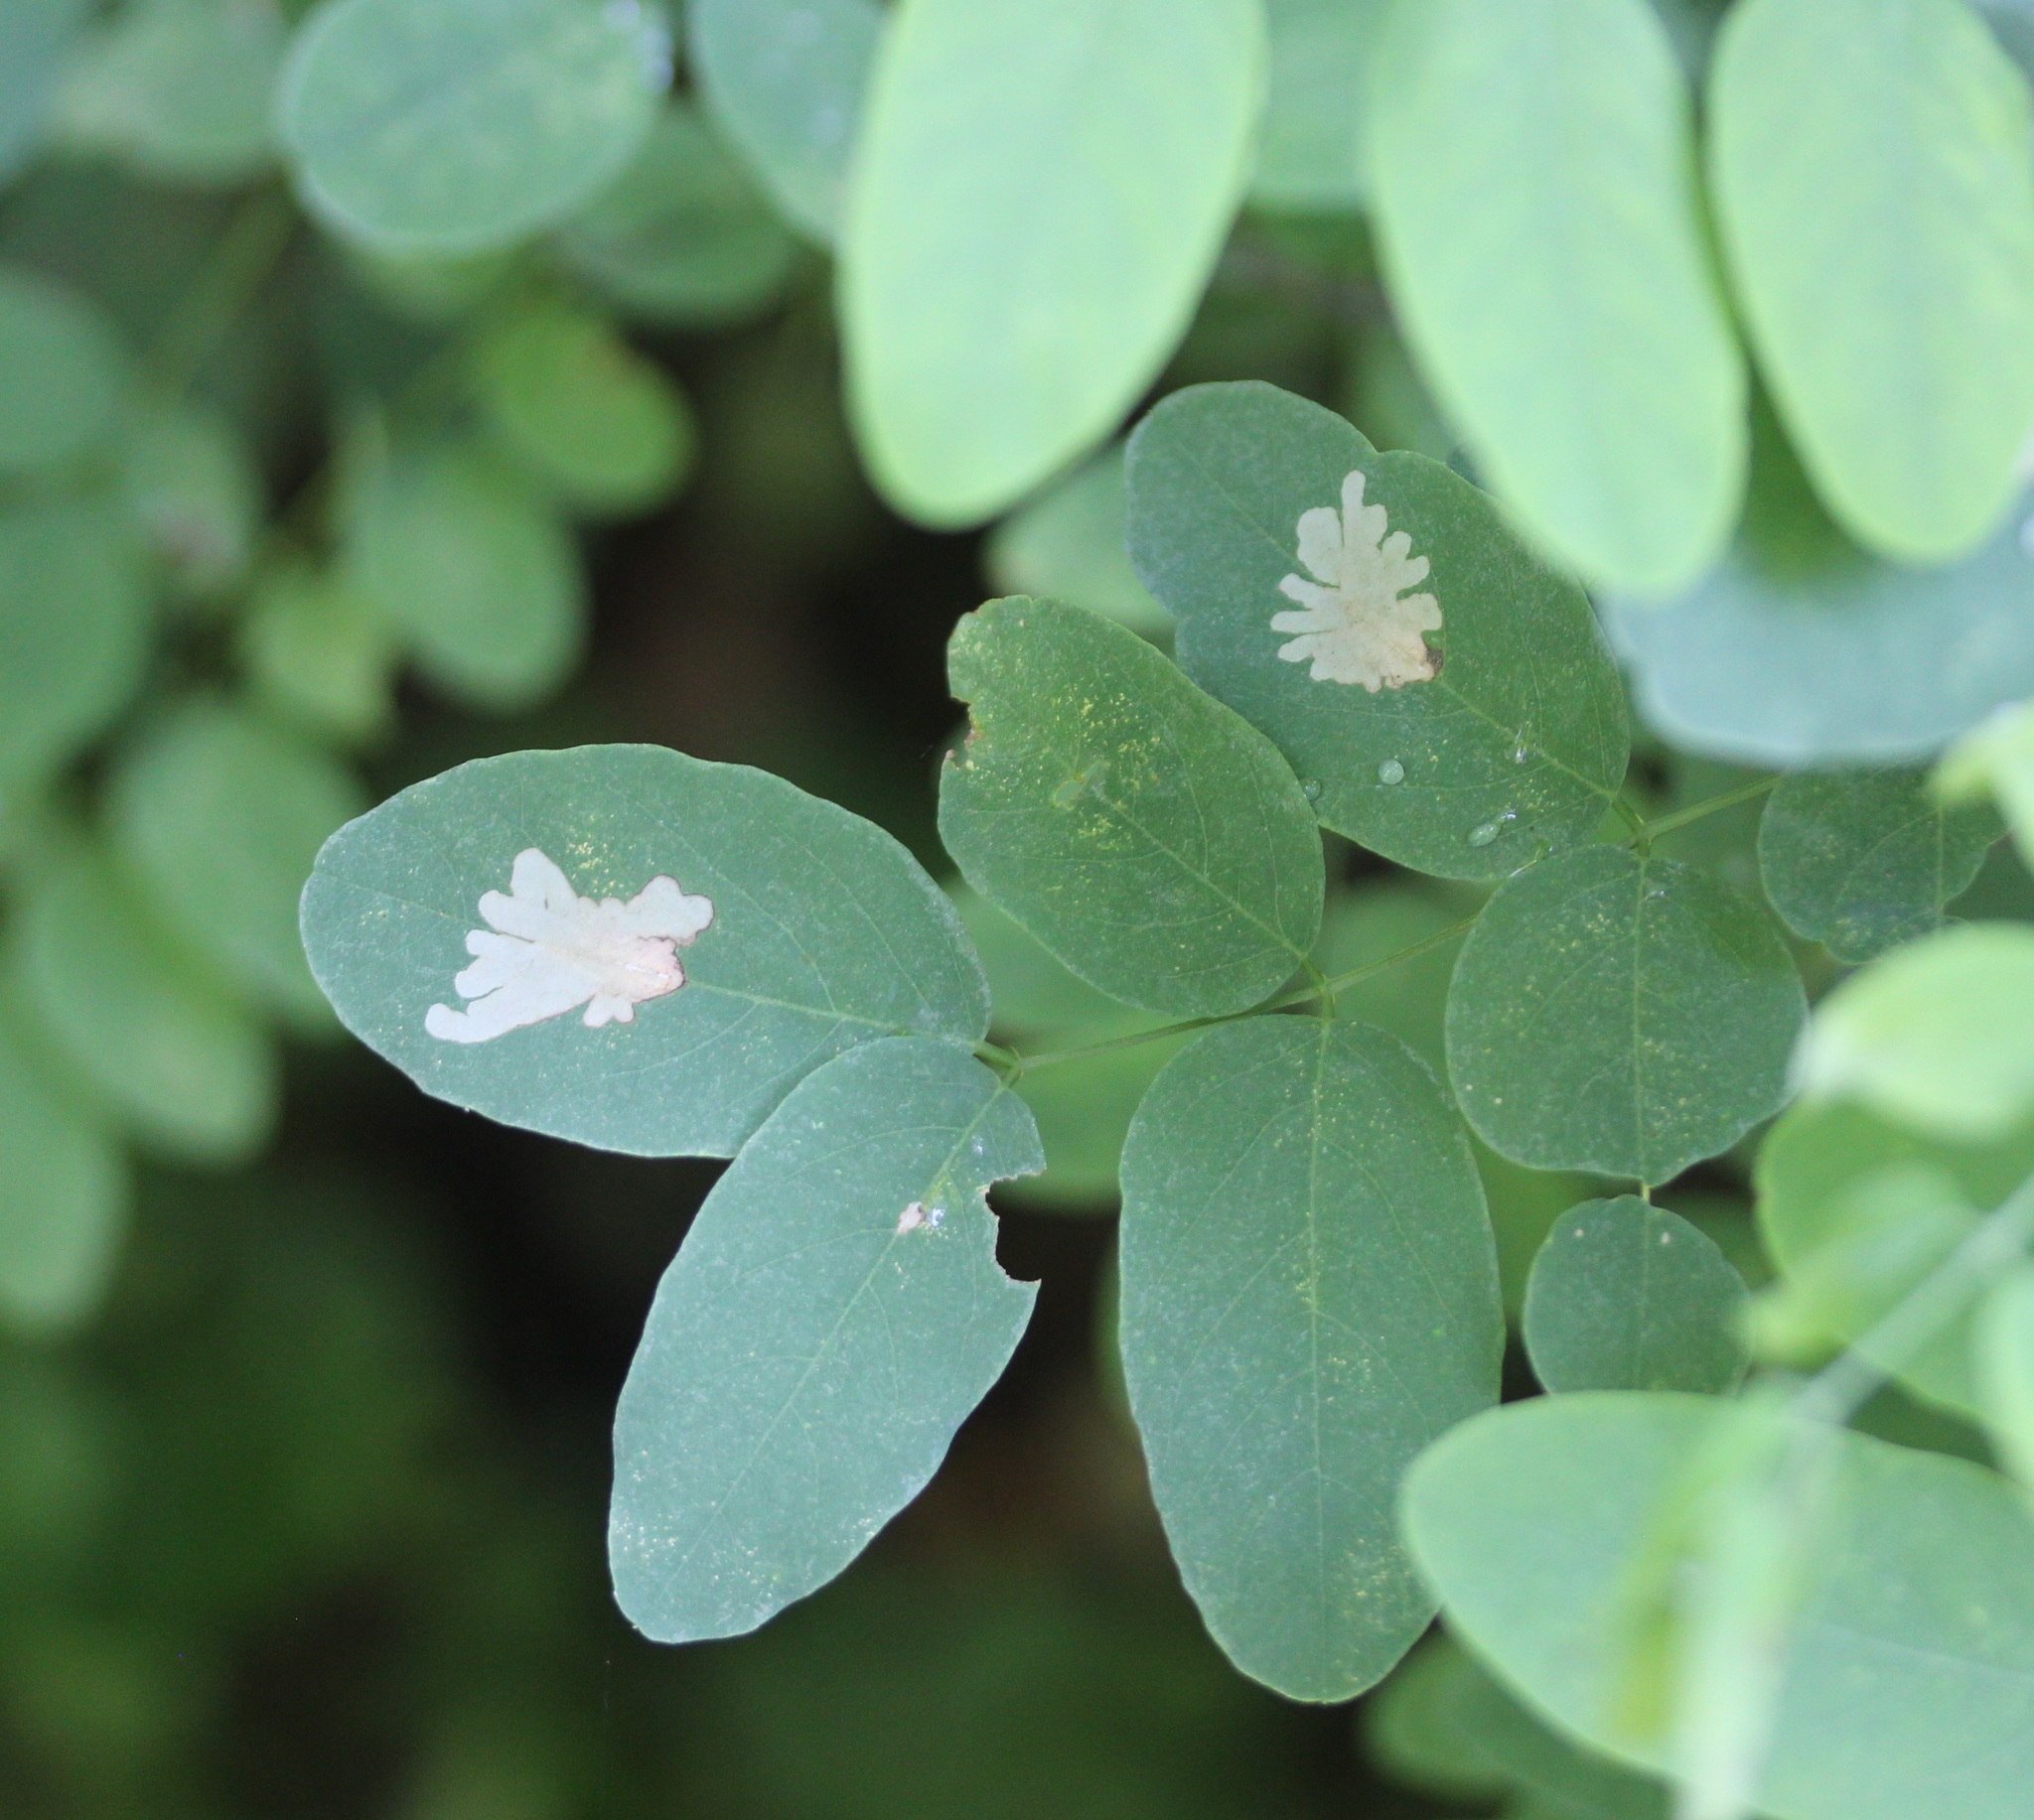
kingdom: Animalia
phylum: Arthropoda
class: Insecta
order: Lepidoptera
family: Gracillariidae
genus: Parectopa
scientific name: Parectopa robiniella
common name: Locust digitate leafminer
